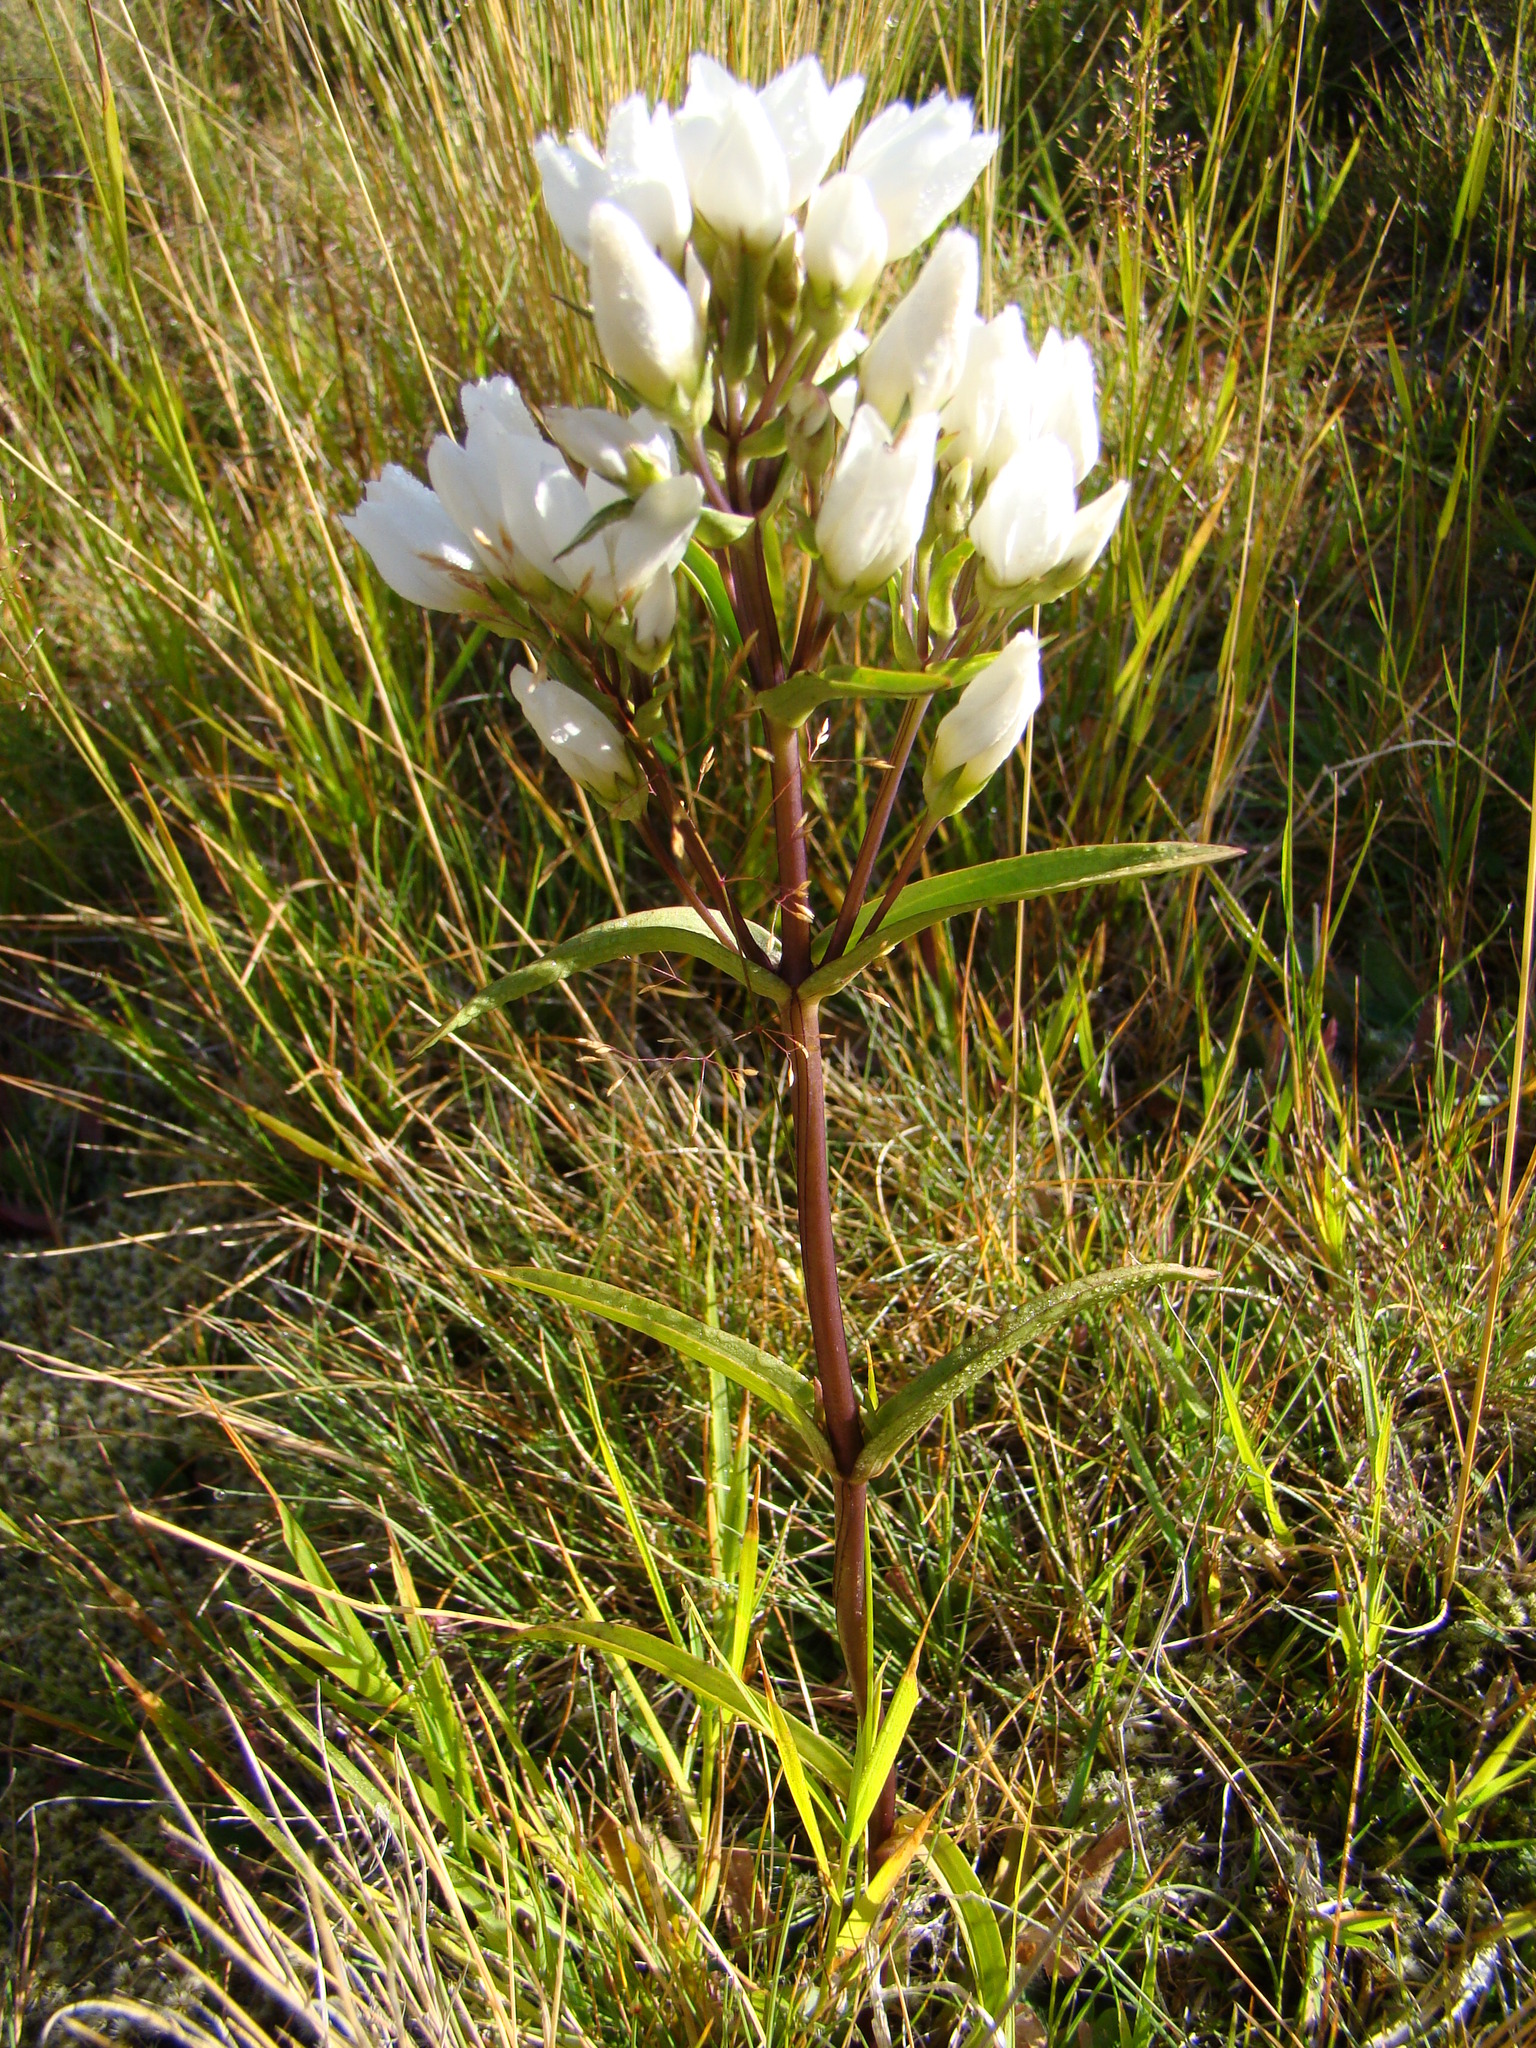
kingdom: Plantae
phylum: Tracheophyta
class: Magnoliopsida
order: Gentianales
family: Gentianaceae
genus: Gentianella
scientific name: Gentianella corymbifera
